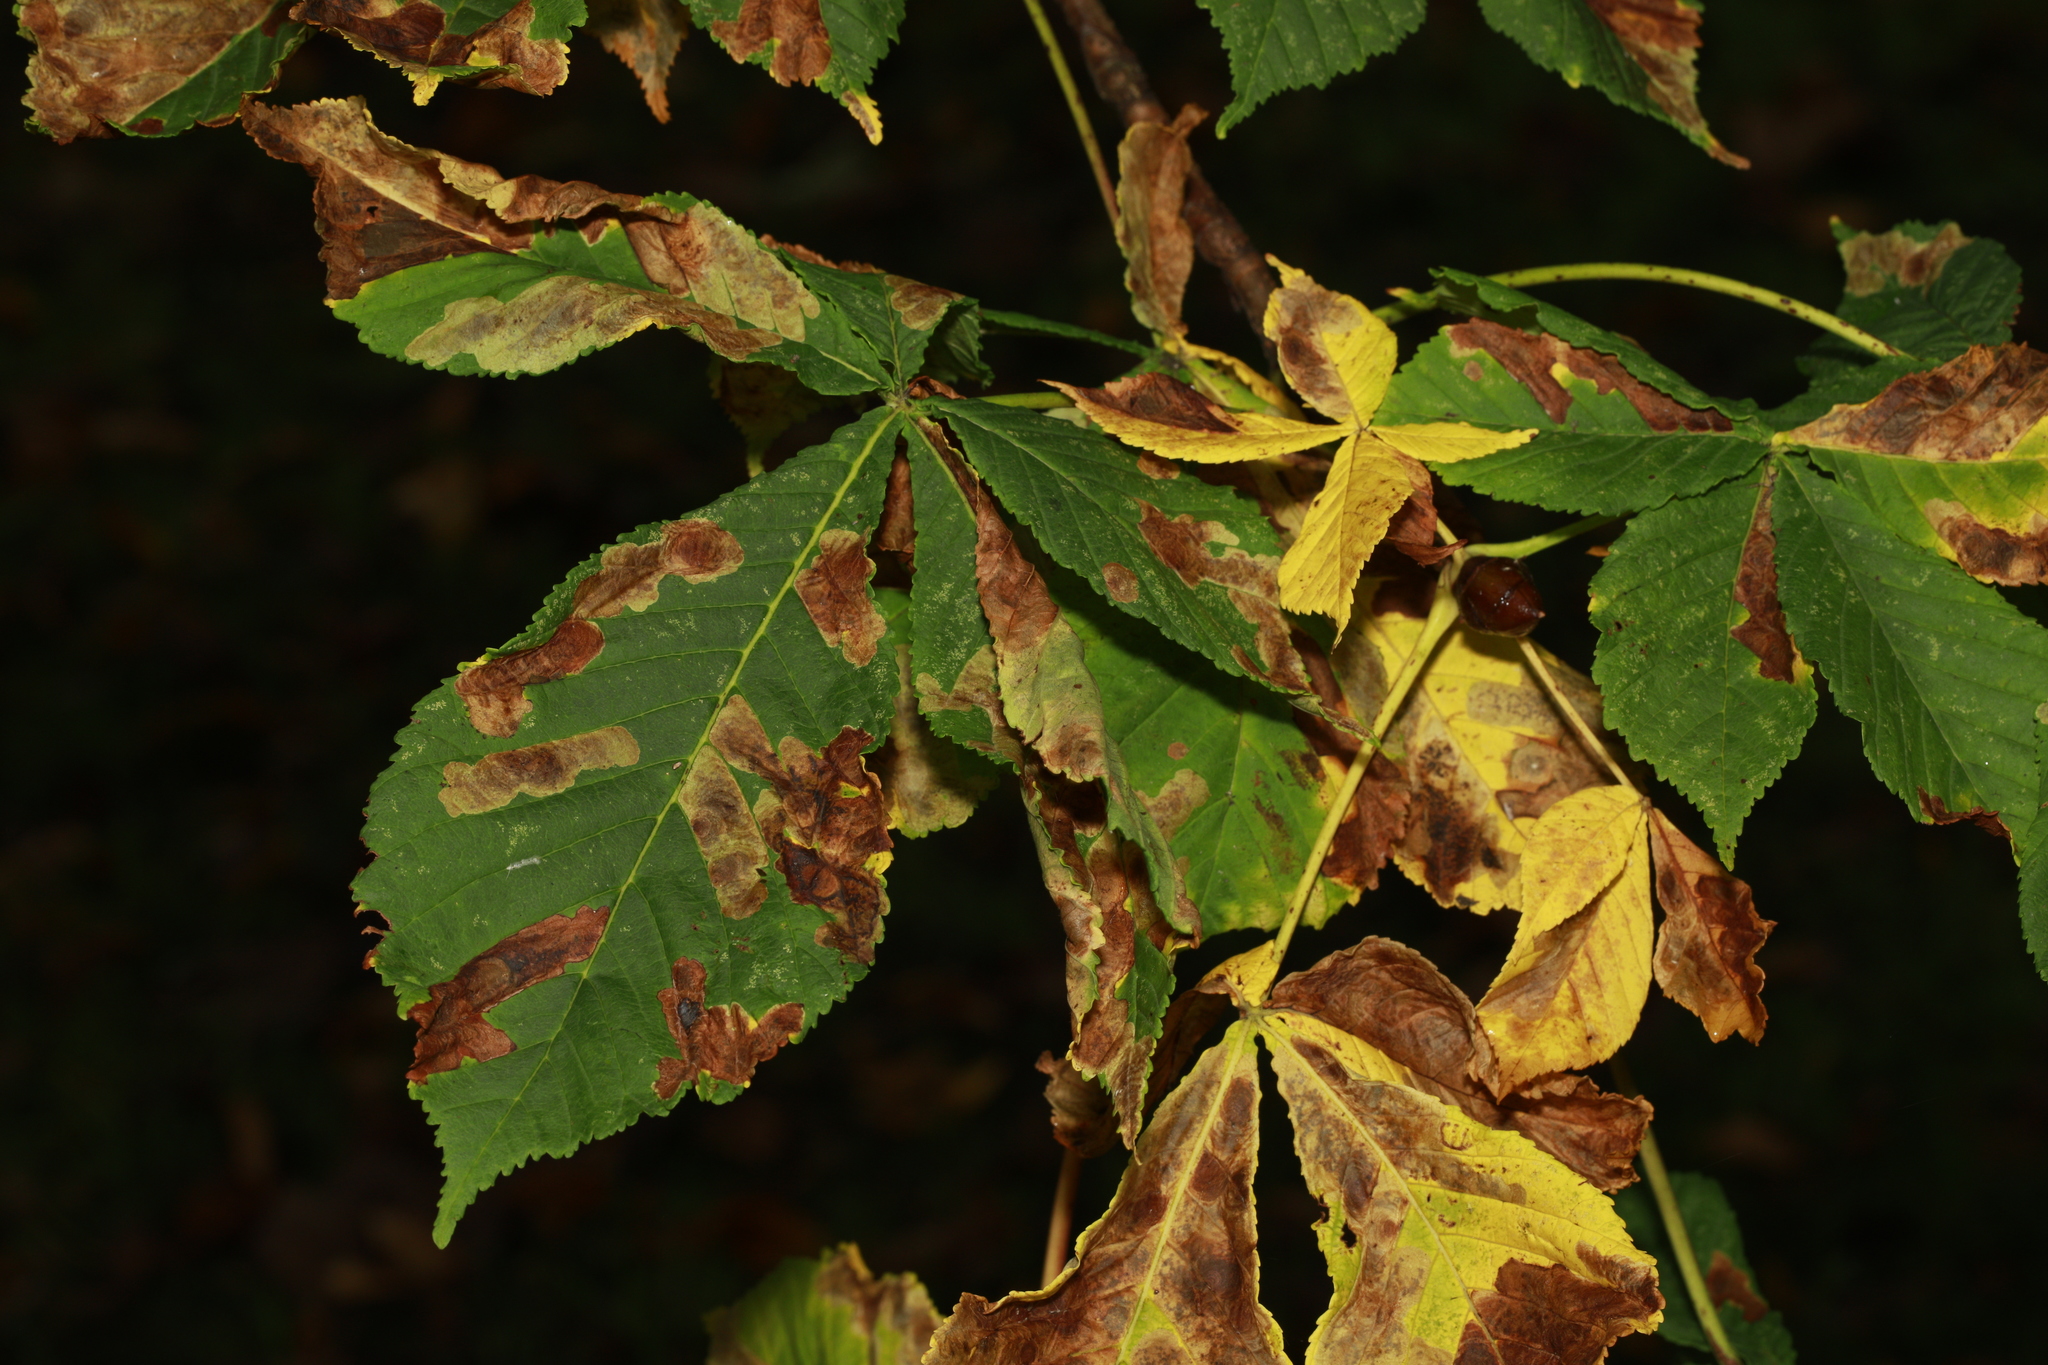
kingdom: Plantae
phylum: Tracheophyta
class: Magnoliopsida
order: Sapindales
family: Sapindaceae
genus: Aesculus
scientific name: Aesculus hippocastanum
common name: Horse-chestnut
